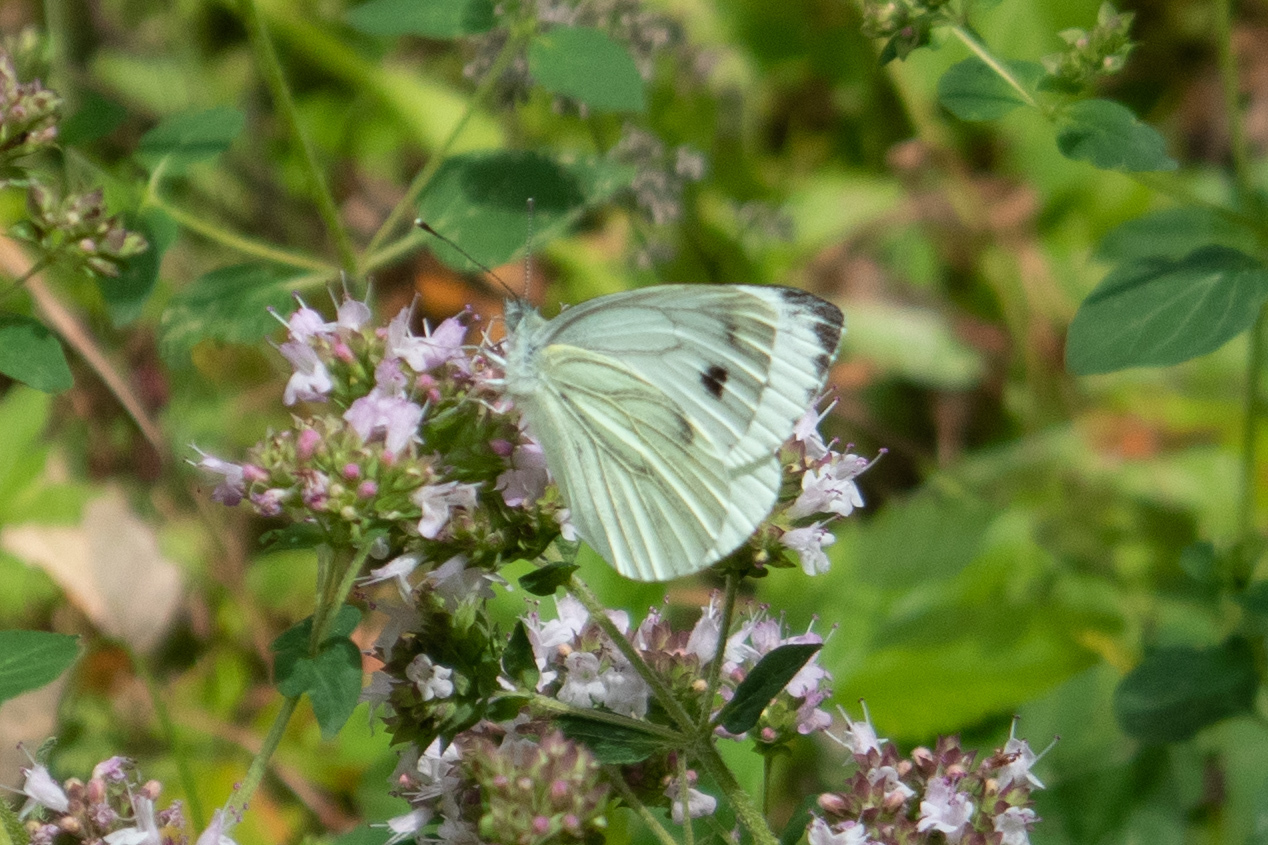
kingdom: Animalia
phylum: Arthropoda
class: Insecta
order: Lepidoptera
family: Pieridae
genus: Pieris
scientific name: Pieris napi
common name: Green-veined white
